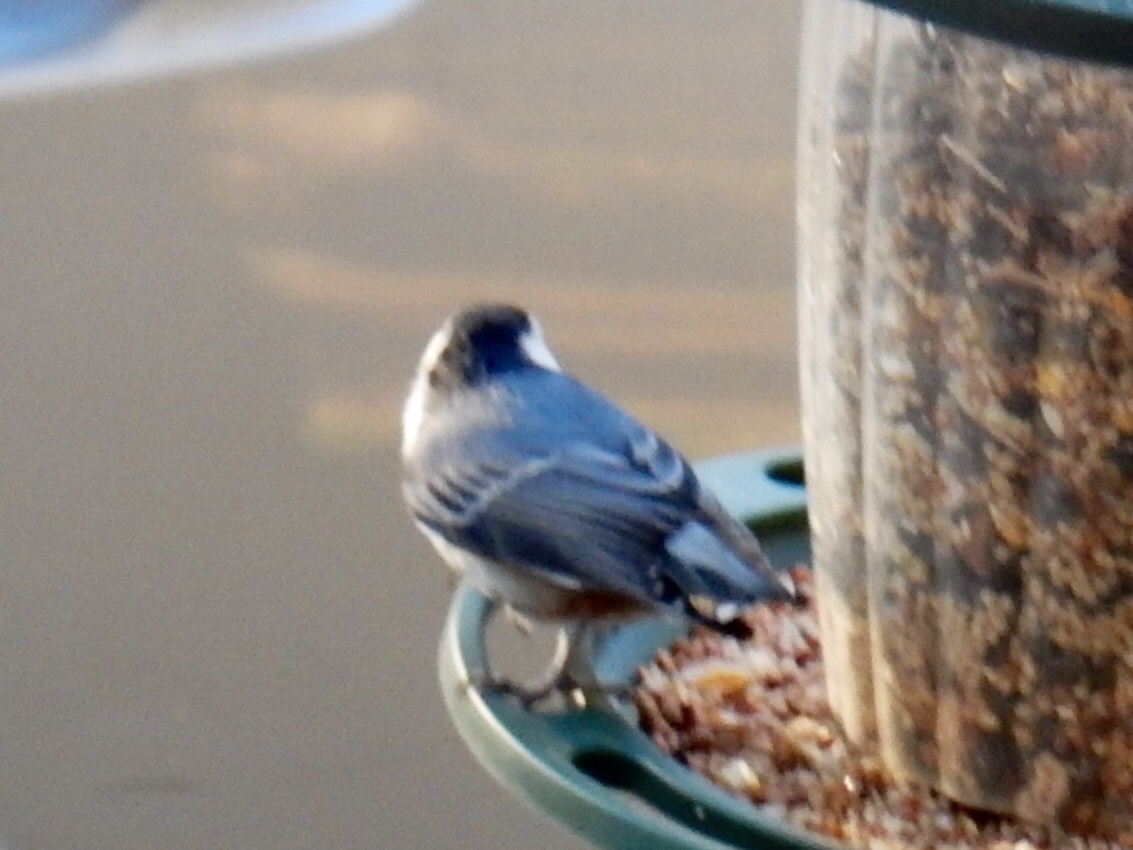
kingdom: Animalia
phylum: Chordata
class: Aves
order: Passeriformes
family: Sittidae
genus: Sitta
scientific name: Sitta carolinensis
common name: White-breasted nuthatch
